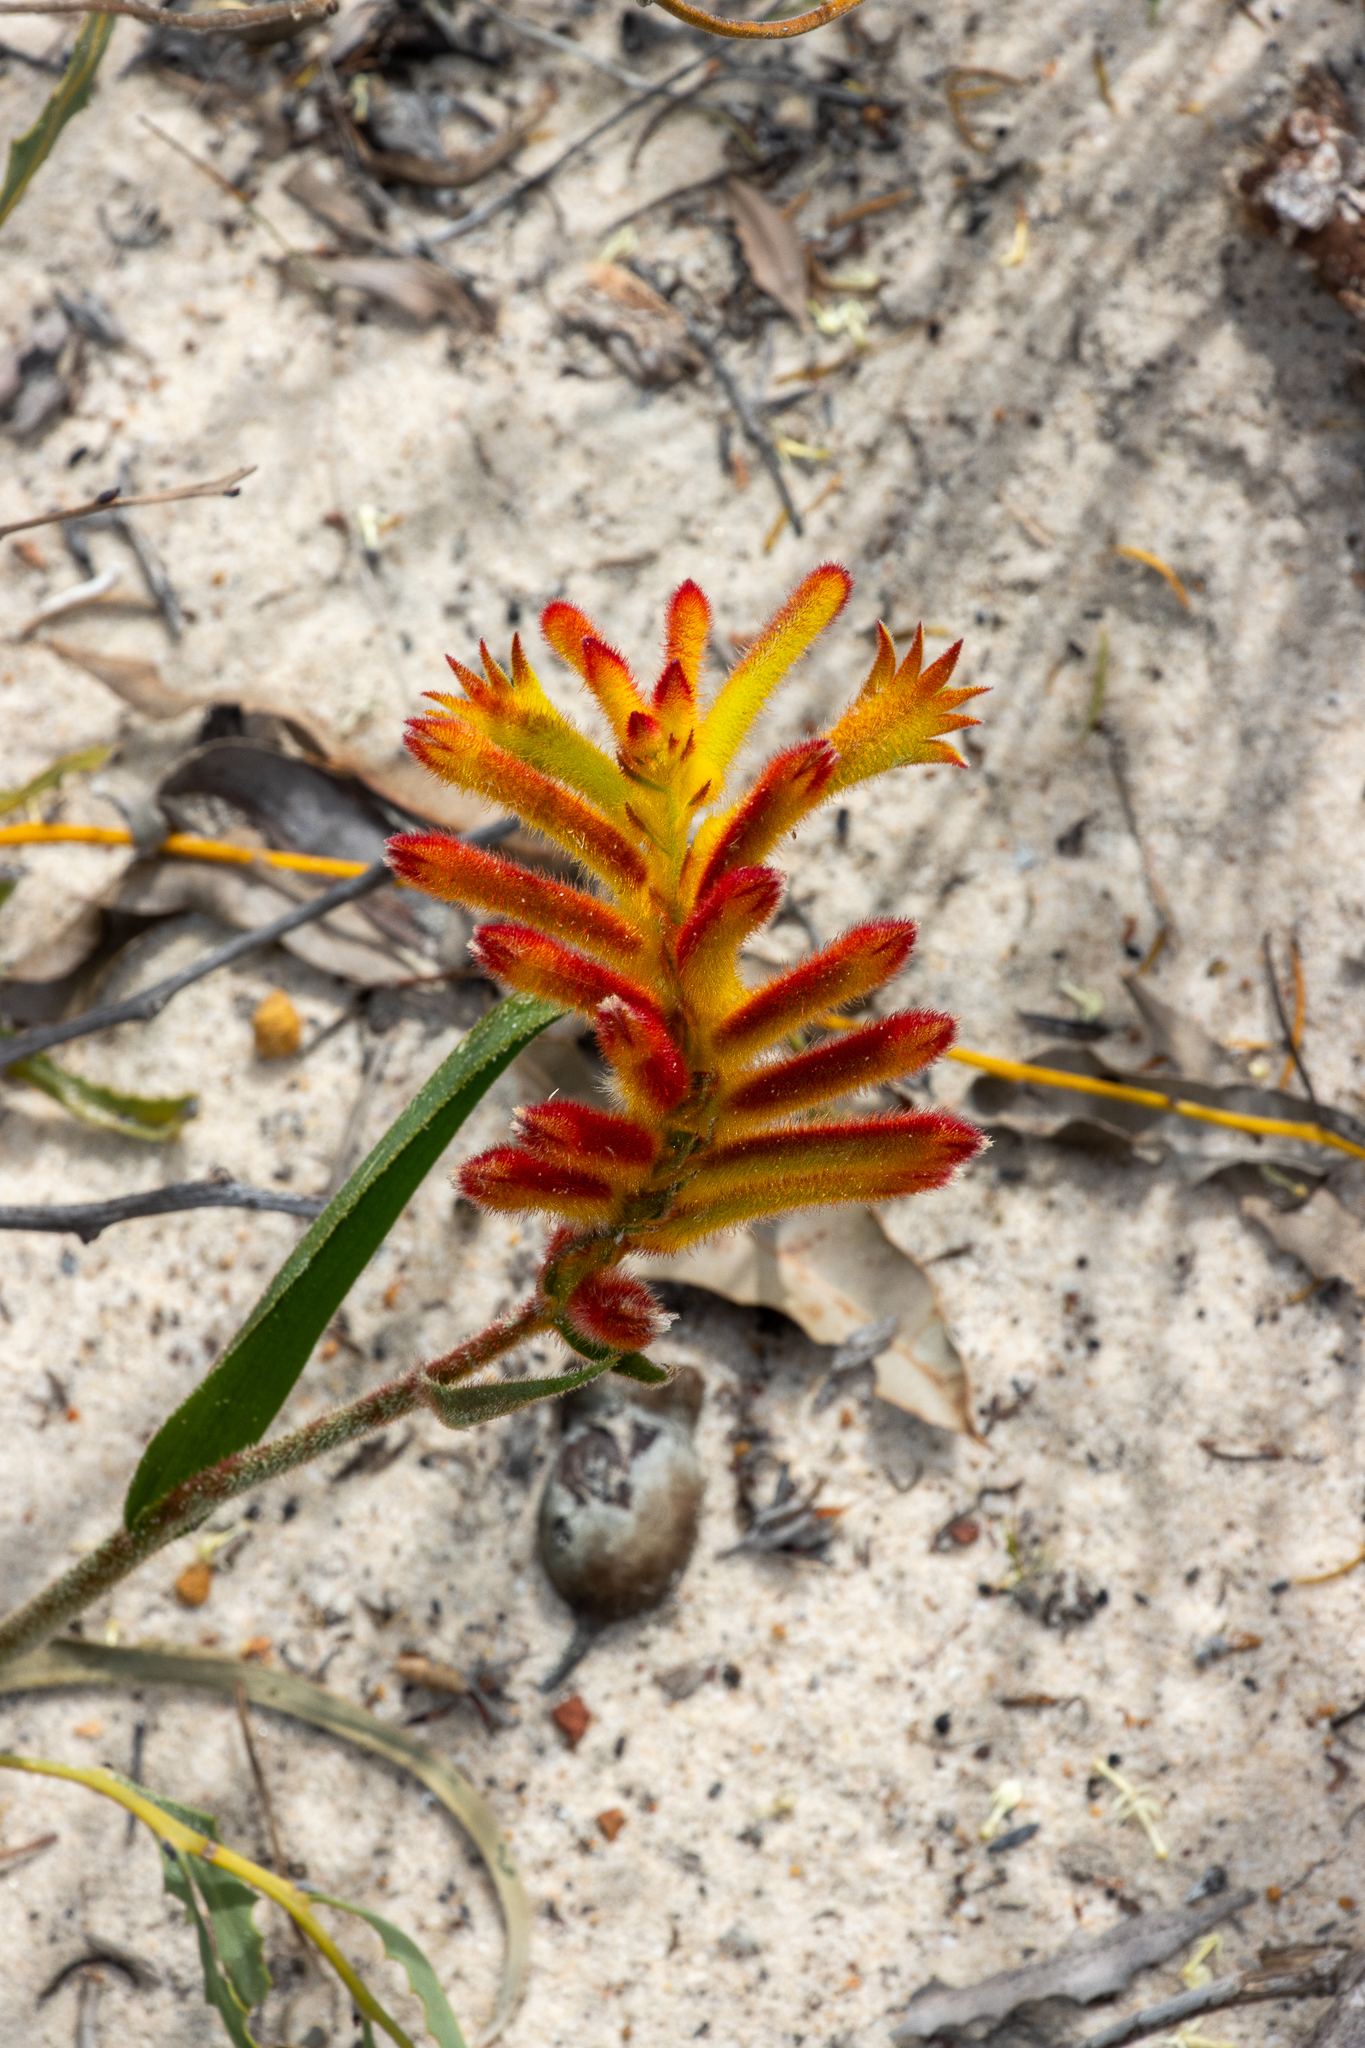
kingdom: Plantae
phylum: Tracheophyta
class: Liliopsida
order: Commelinales
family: Haemodoraceae
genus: Anigozanthos
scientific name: Anigozanthos humilis
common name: Cat's-paw
